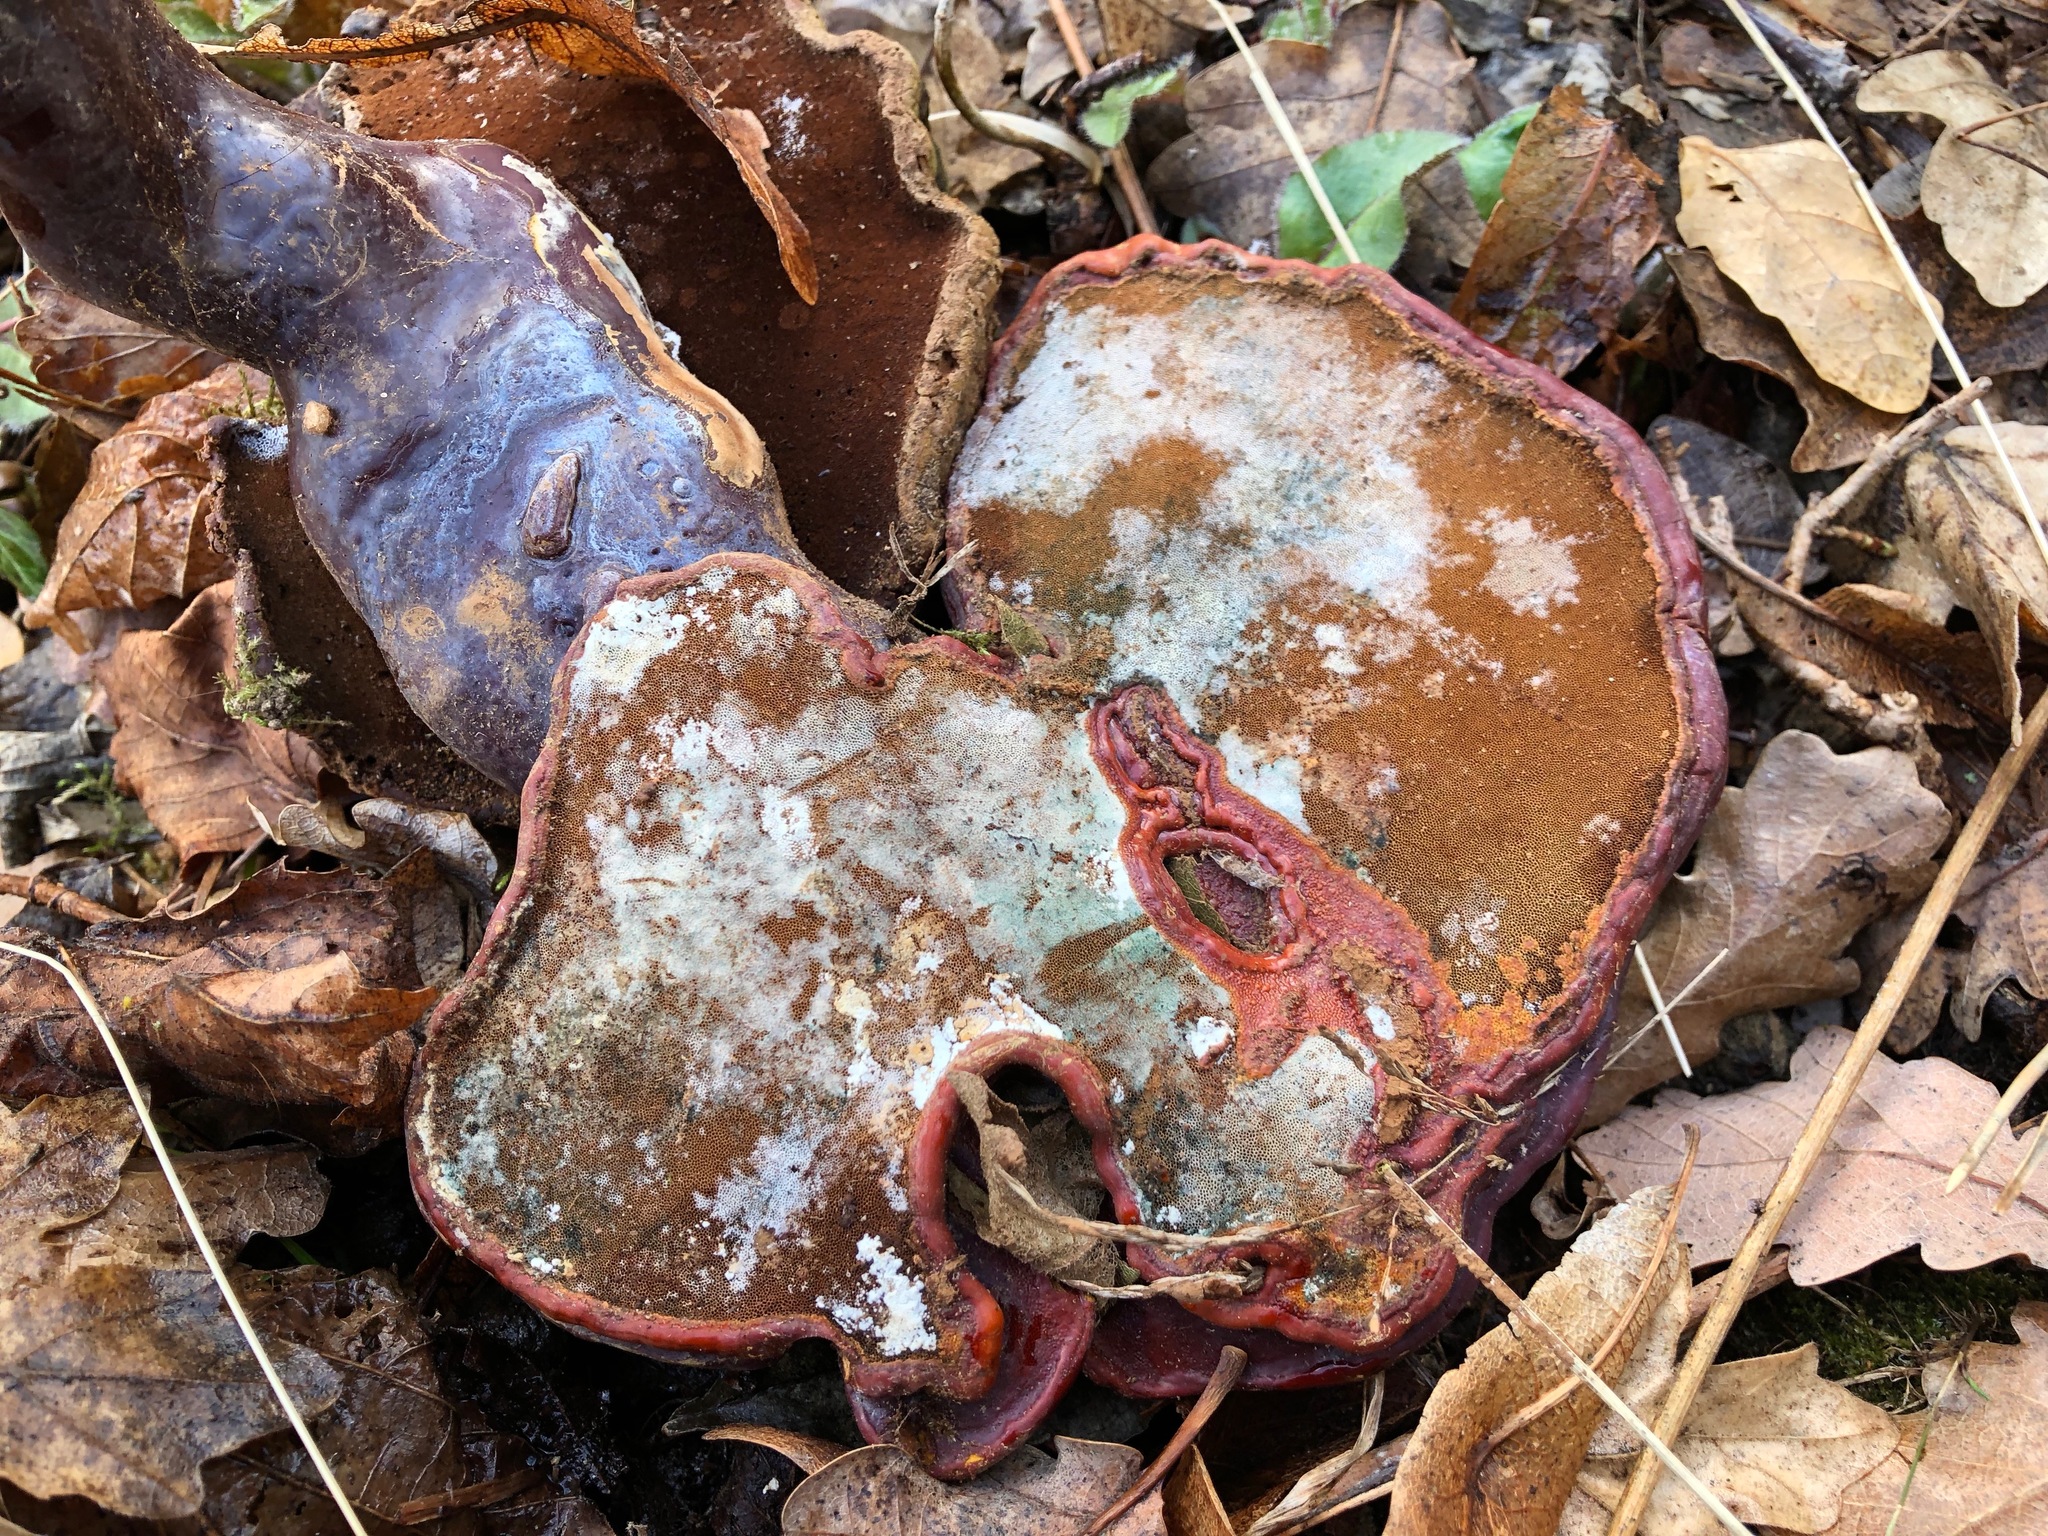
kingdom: Fungi
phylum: Basidiomycota
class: Agaricomycetes
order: Polyporales
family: Polyporaceae
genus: Ganoderma
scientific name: Ganoderma lucidum
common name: Lacquered bracket
